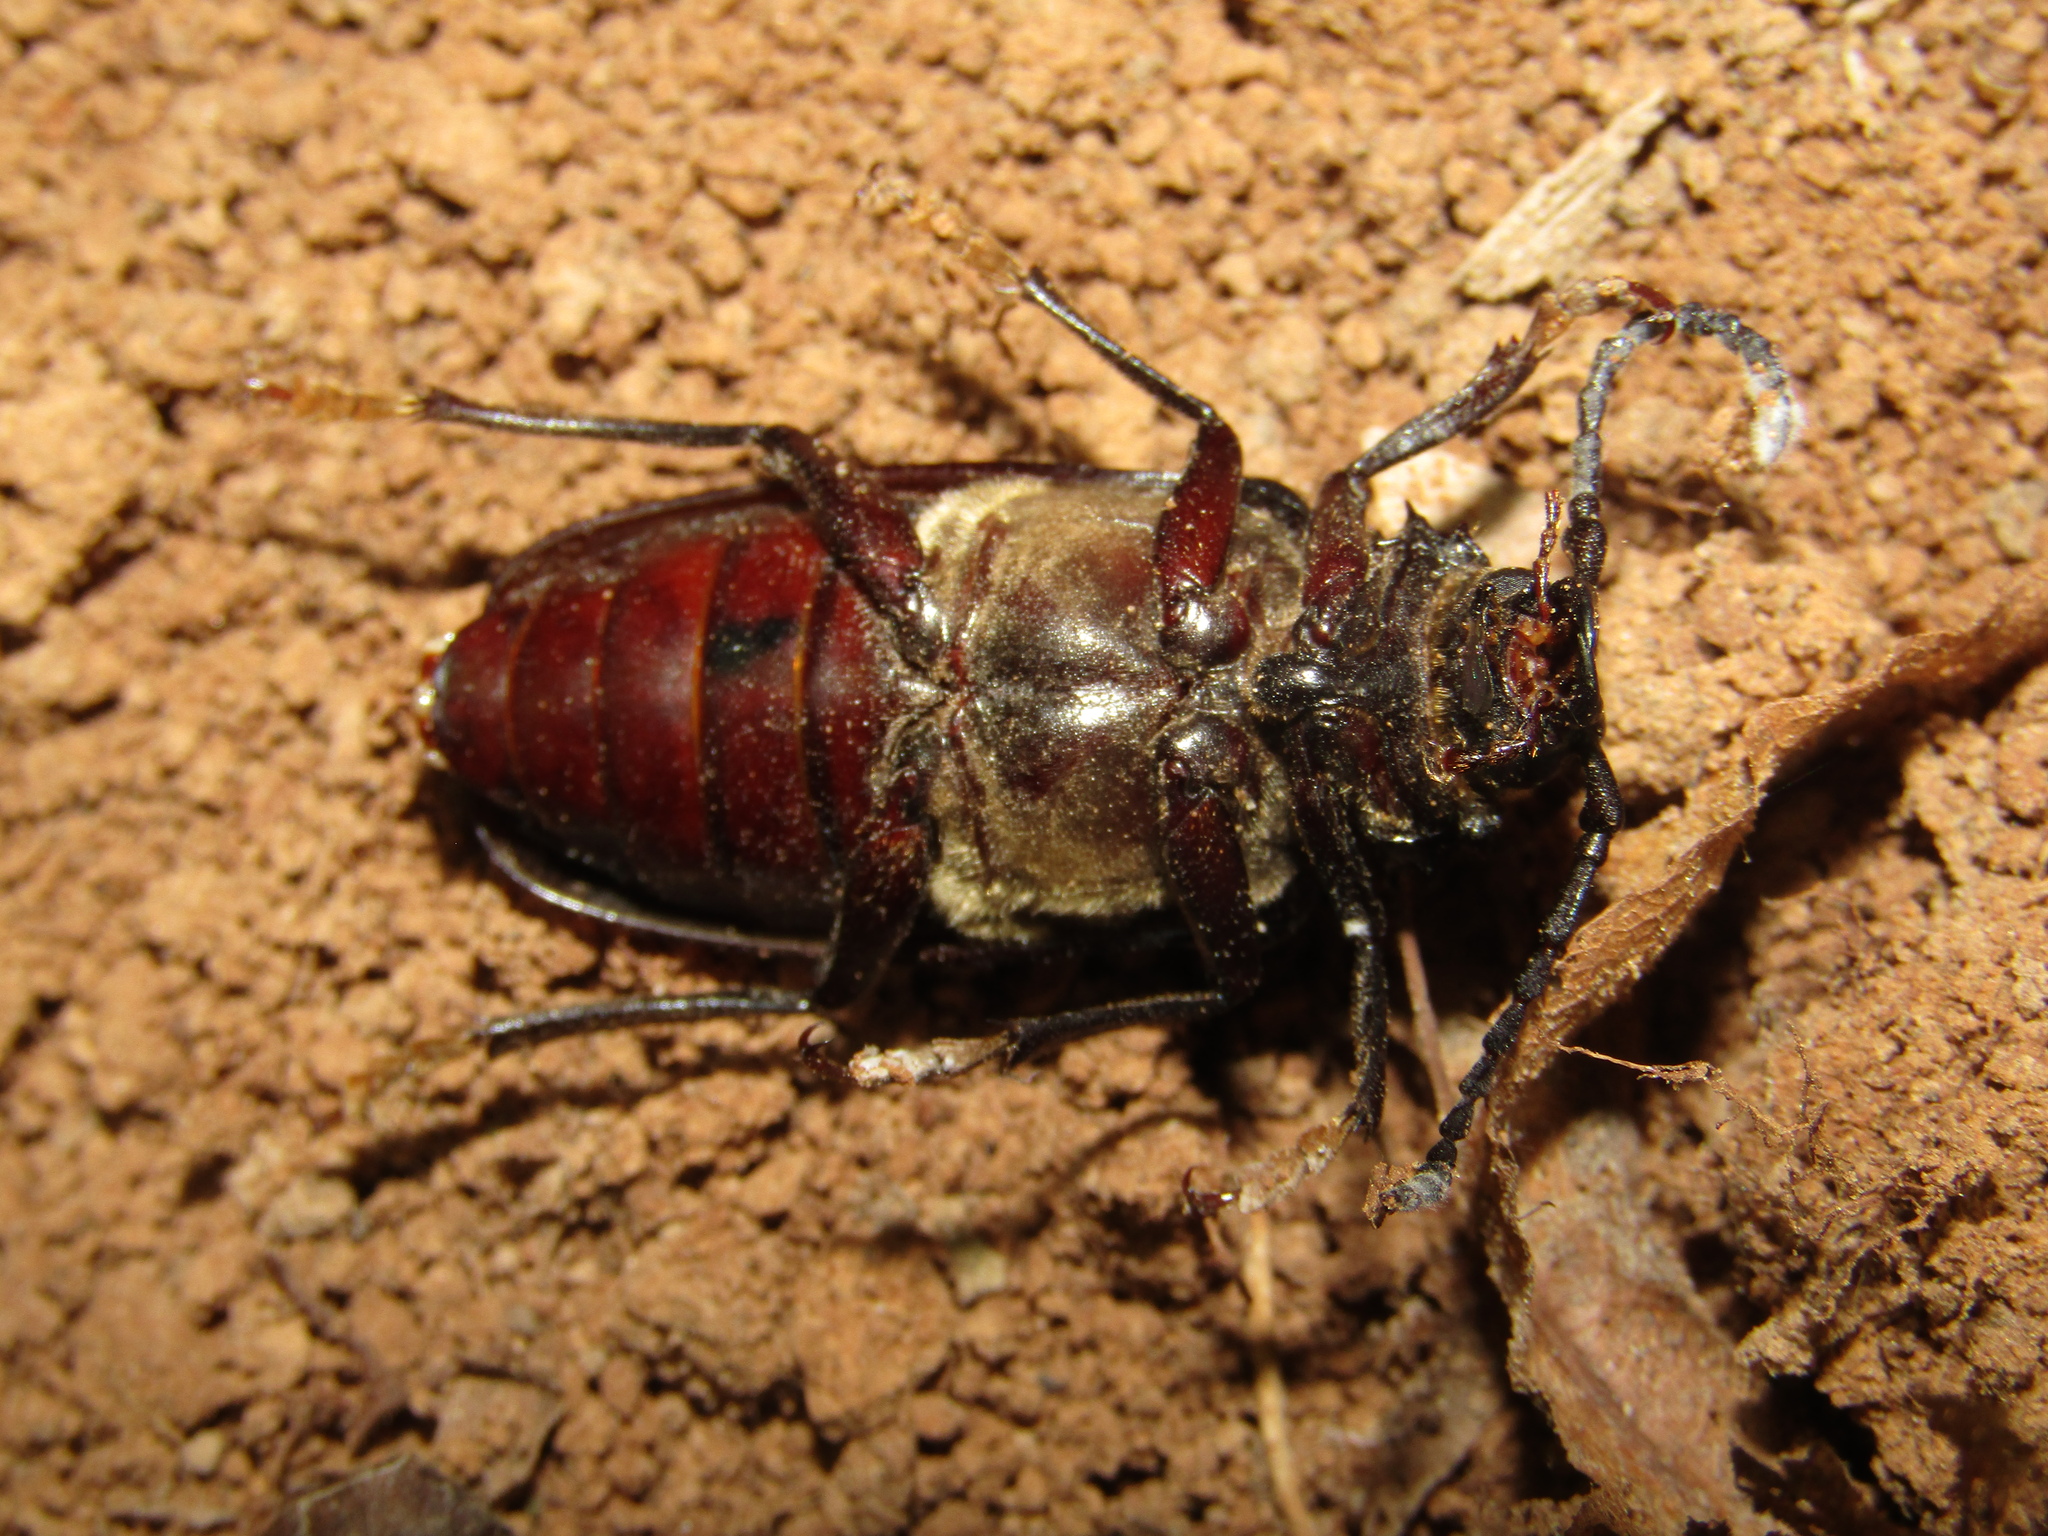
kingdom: Animalia
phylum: Arthropoda
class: Insecta
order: Coleoptera
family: Cerambycidae
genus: Prionus
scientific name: Prionus coriarius
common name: Tanner beetle
